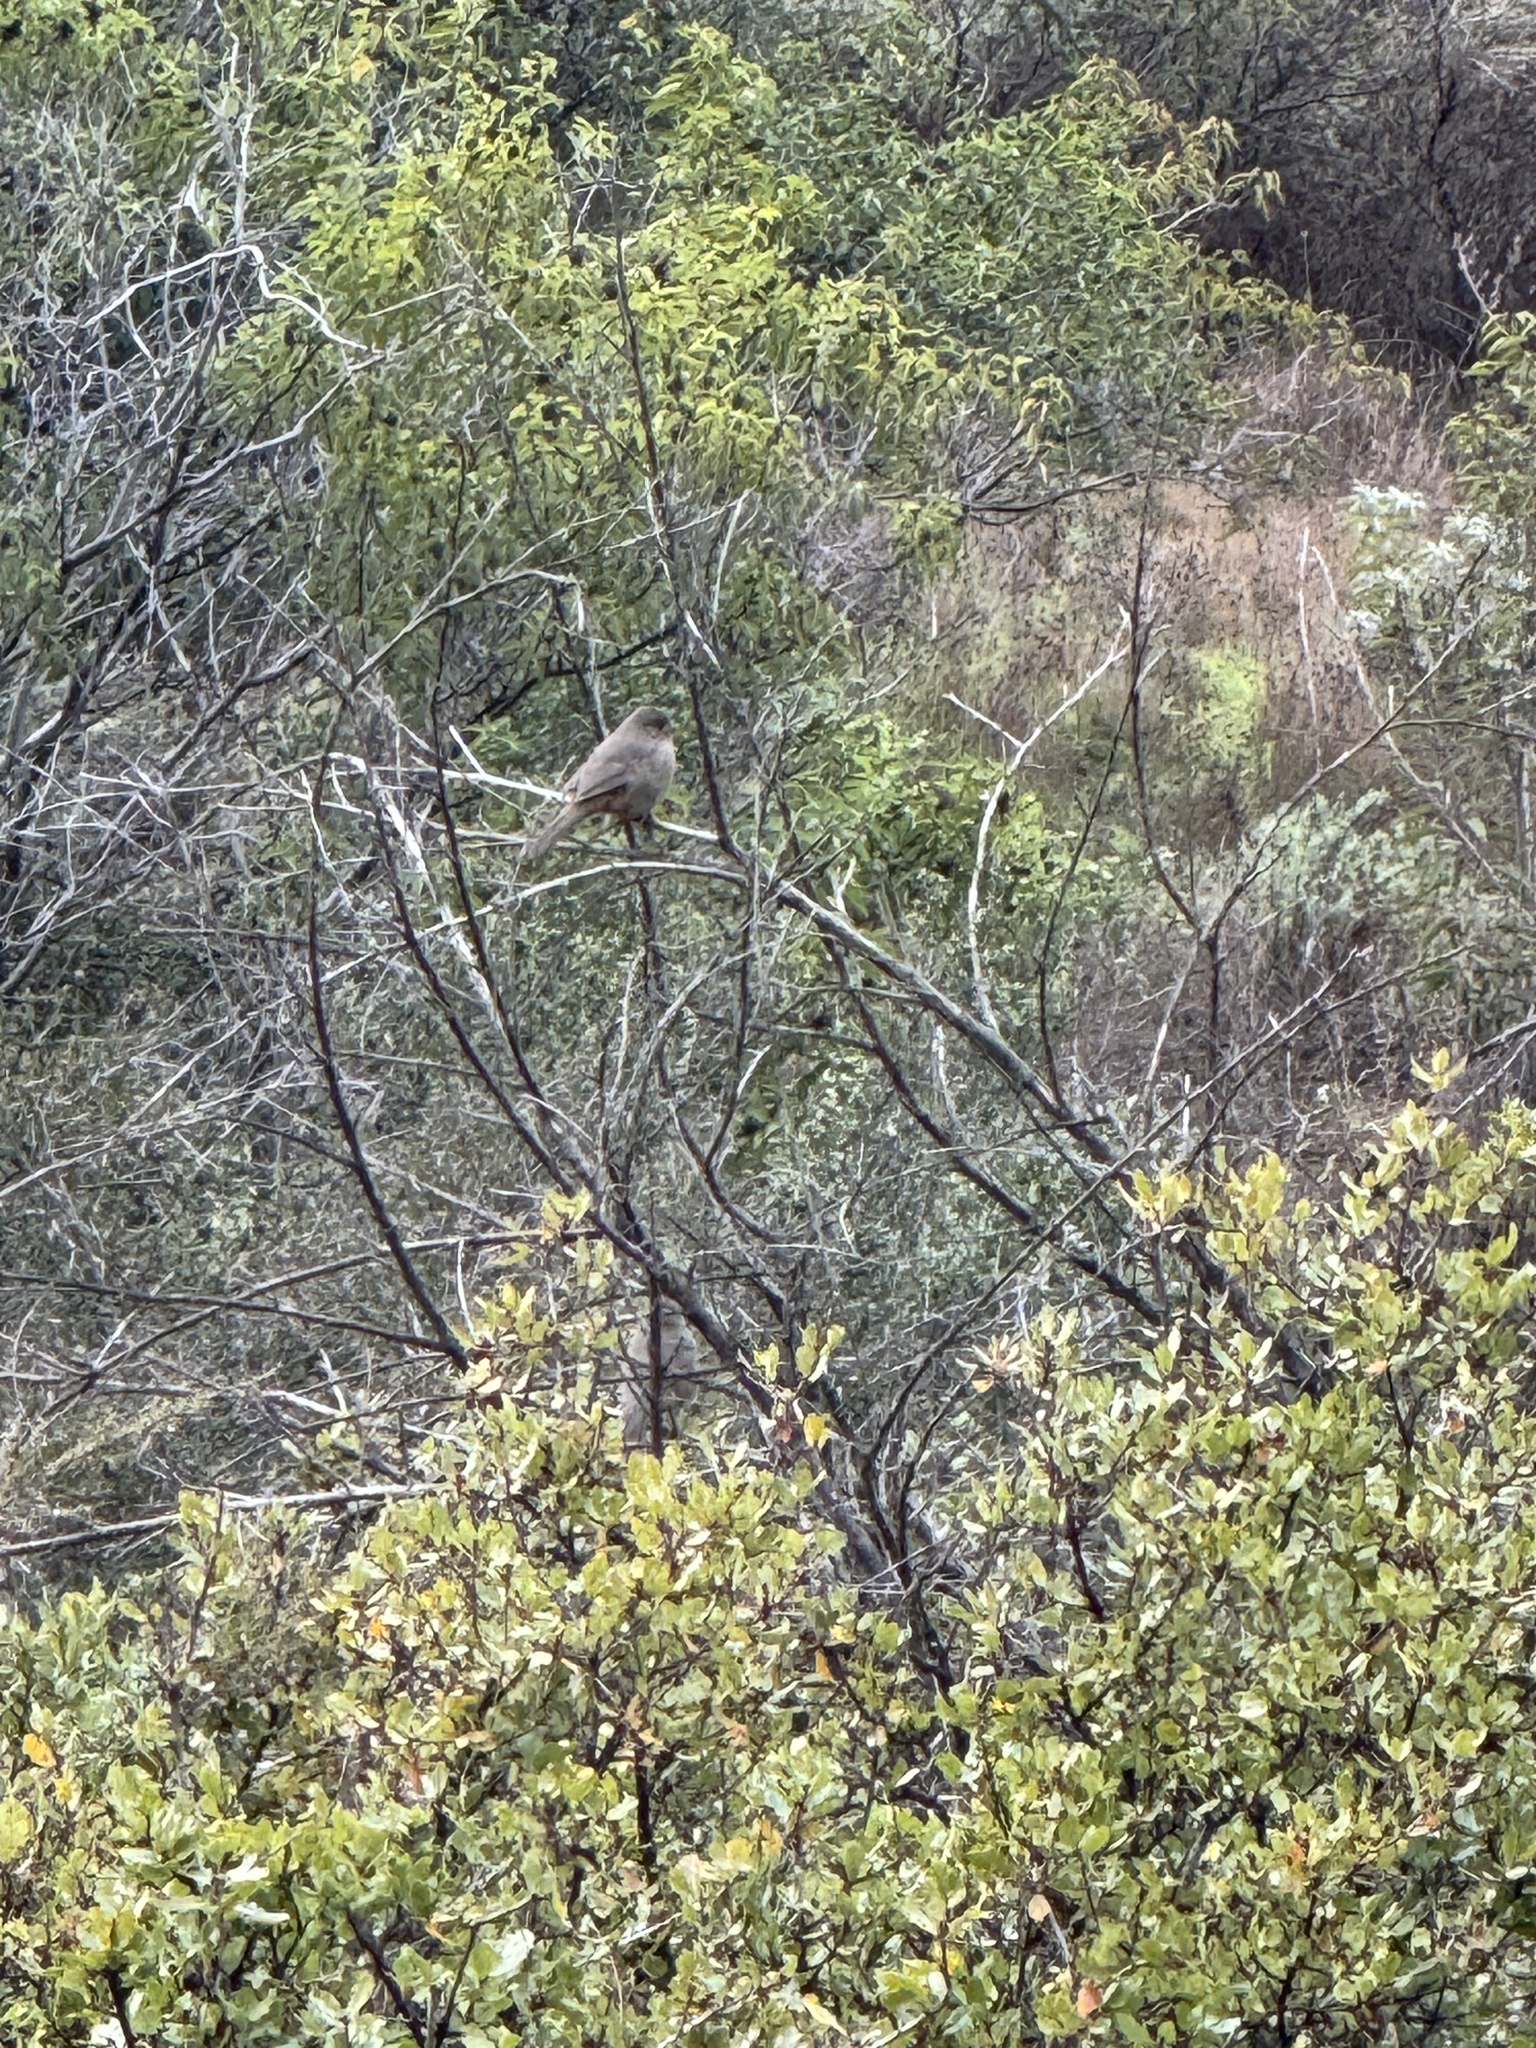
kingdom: Animalia
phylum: Chordata
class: Aves
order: Passeriformes
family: Passerellidae
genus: Melozone
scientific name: Melozone crissalis
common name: California towhee
